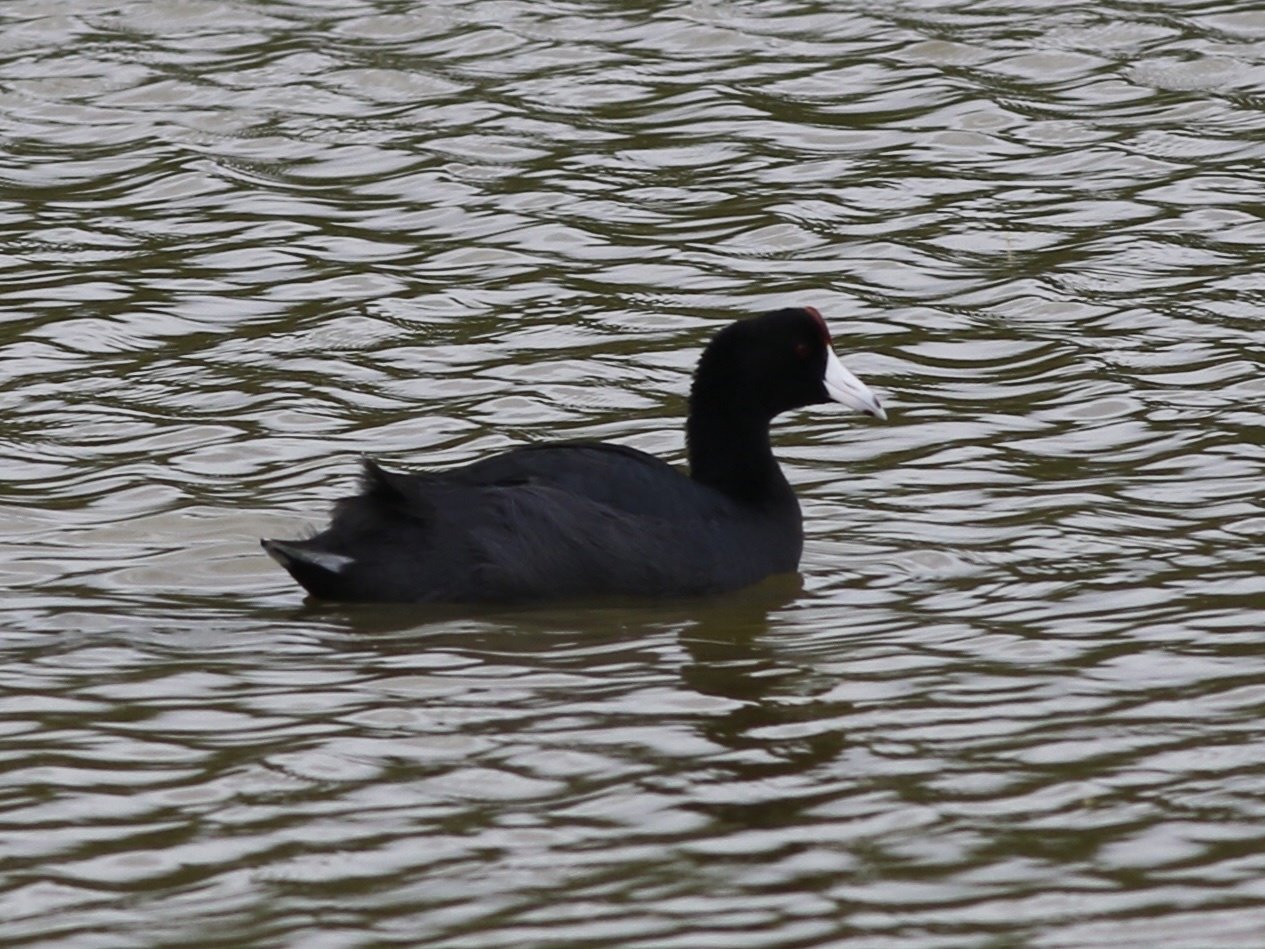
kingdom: Animalia
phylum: Chordata
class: Aves
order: Gruiformes
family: Rallidae
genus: Fulica
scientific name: Fulica alai
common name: Hawaiian coot
